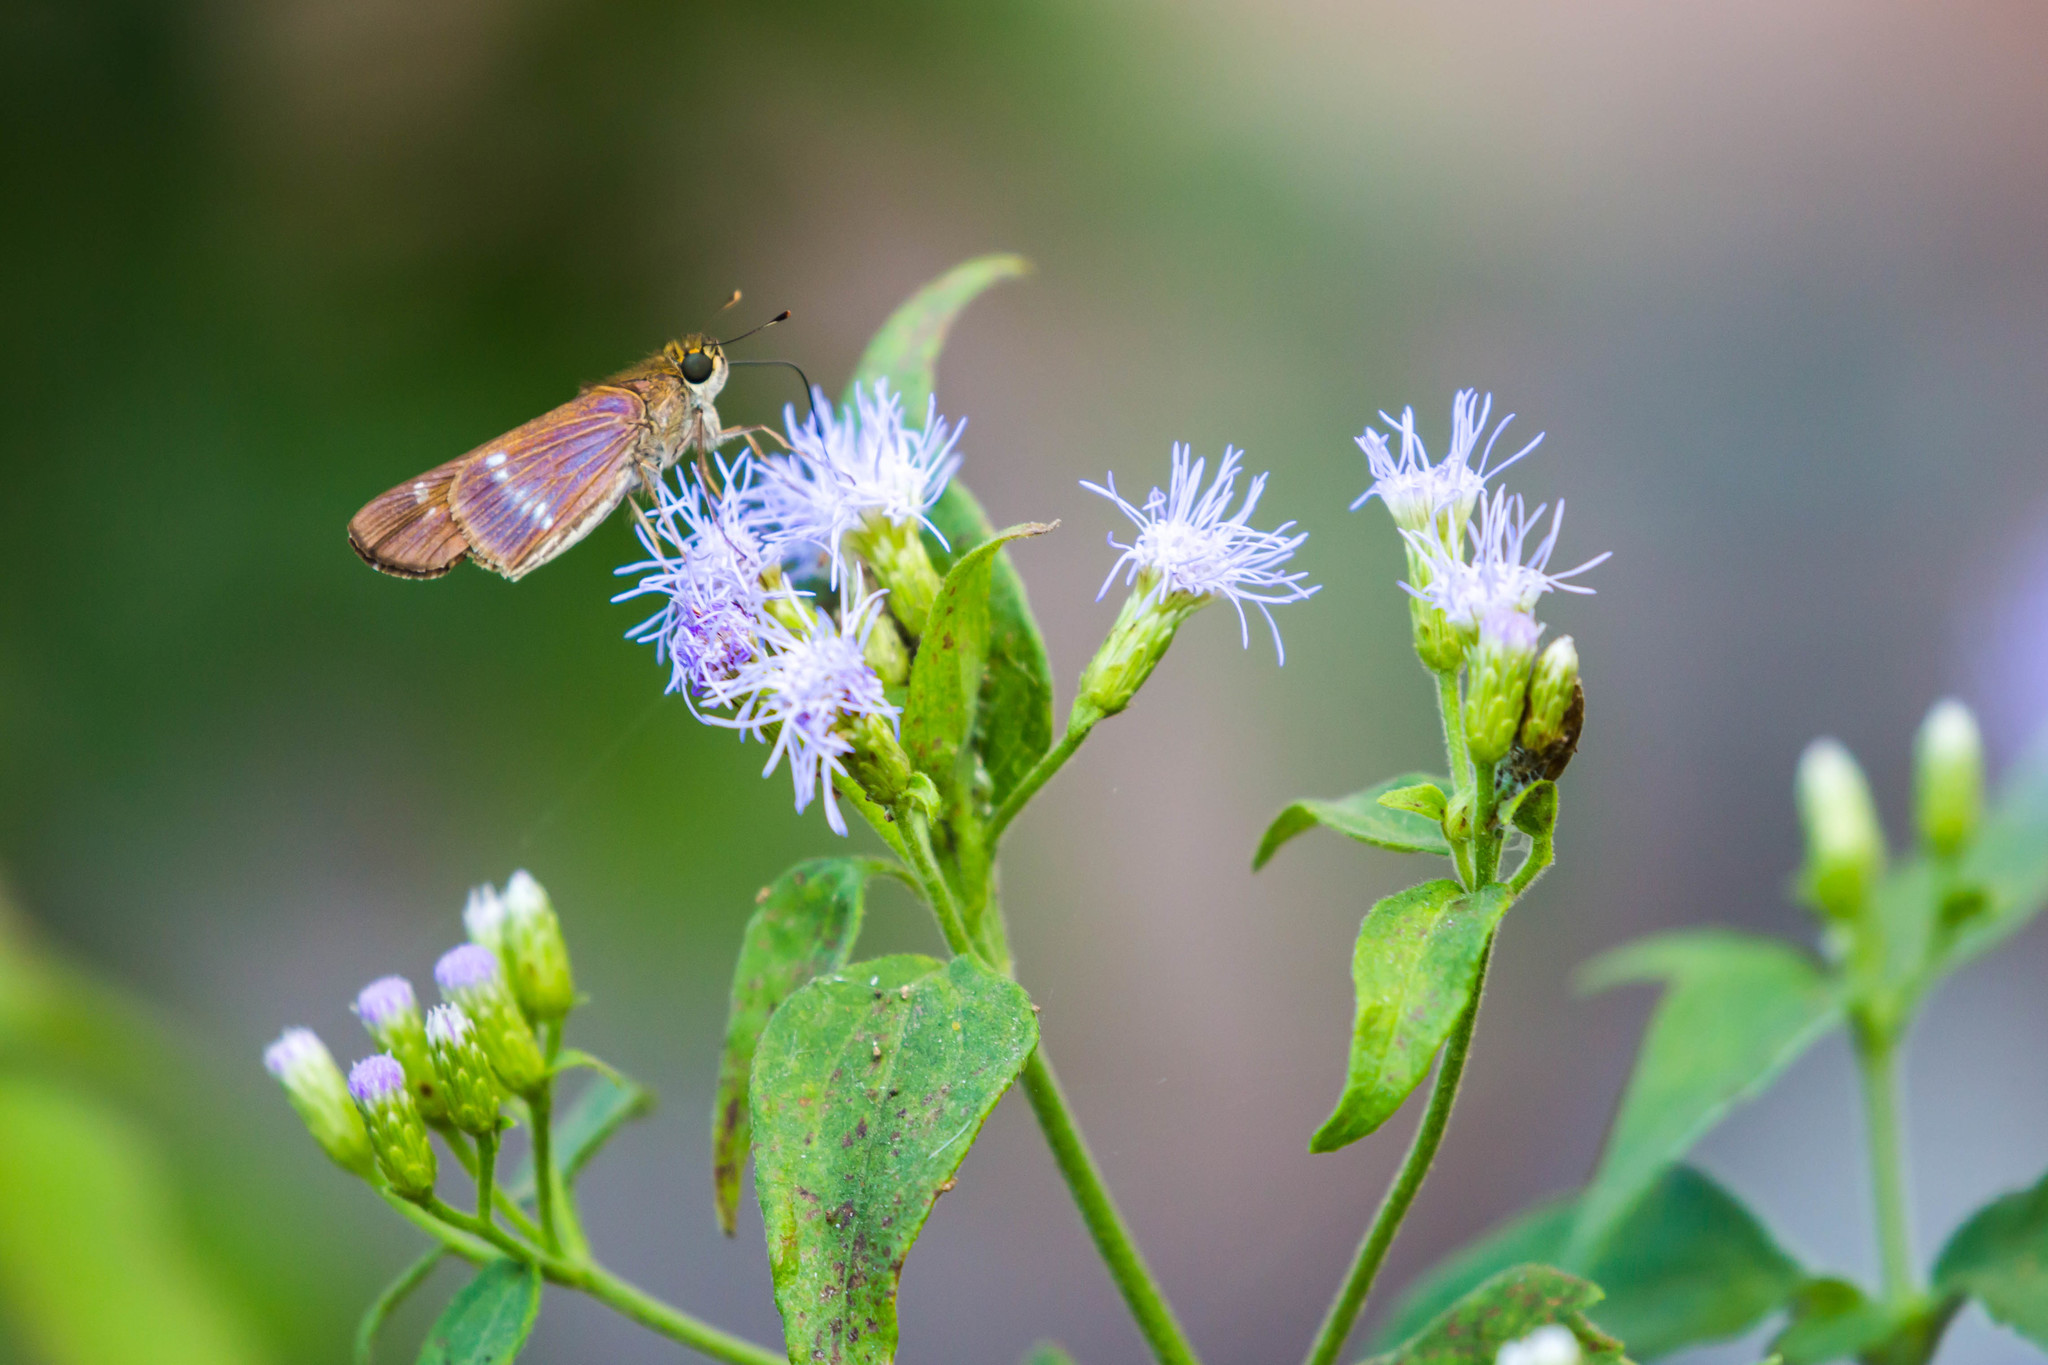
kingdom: Animalia
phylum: Arthropoda
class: Insecta
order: Lepidoptera
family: Hesperiidae
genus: Turesis
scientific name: Turesis lucas
